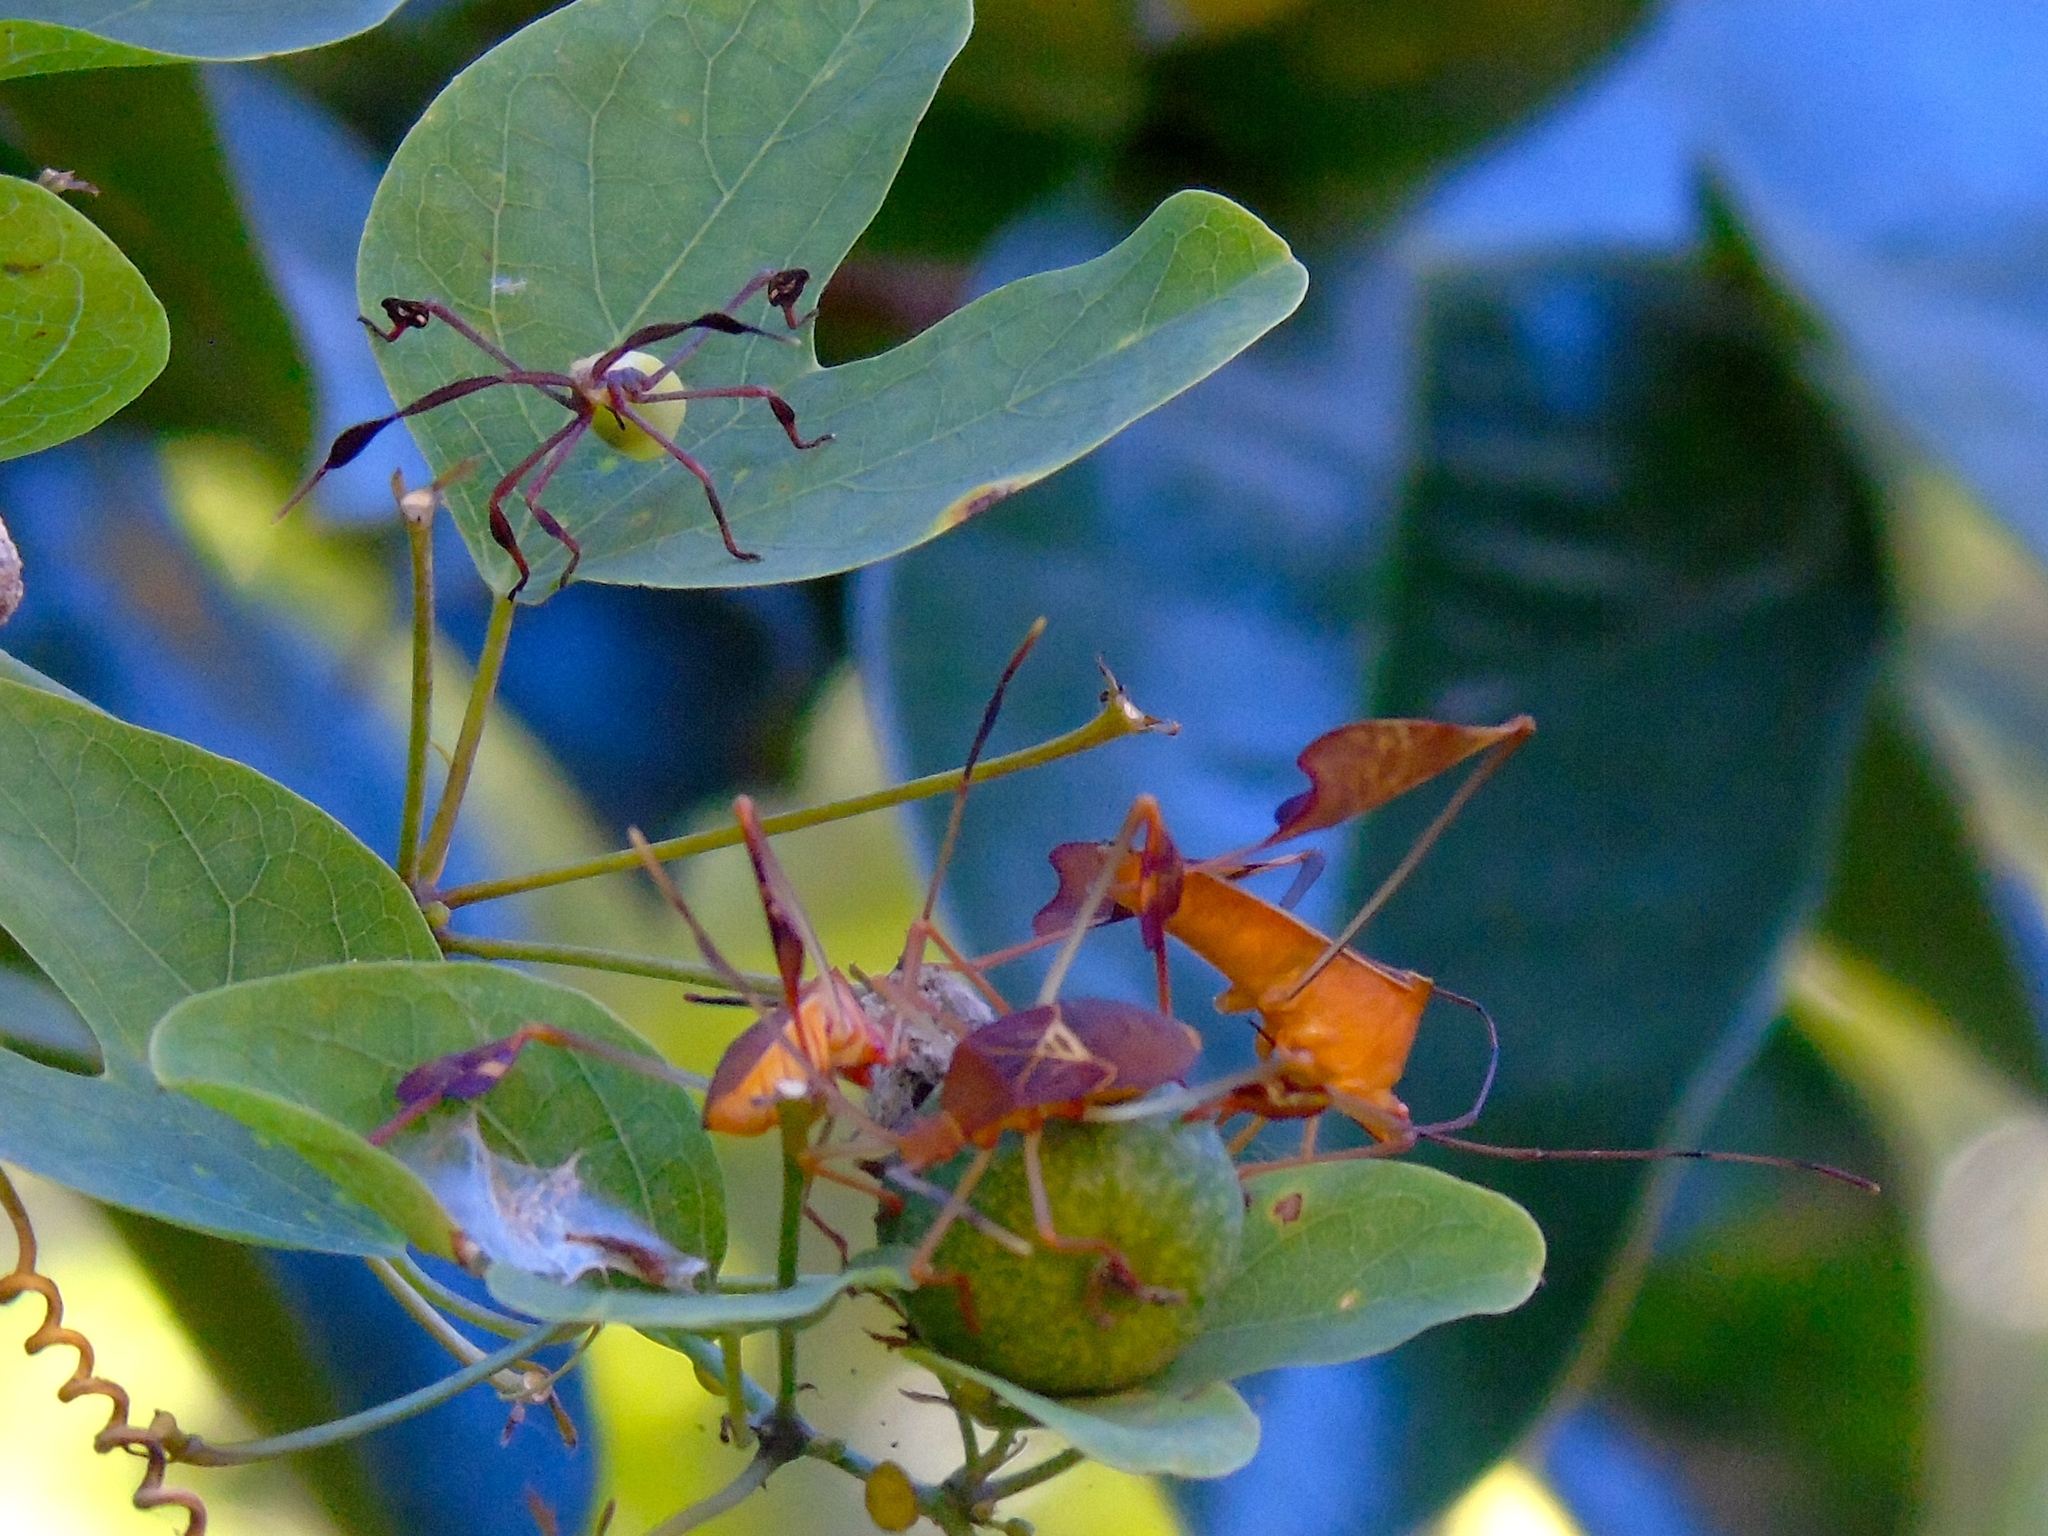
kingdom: Animalia
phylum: Arthropoda
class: Insecta
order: Hemiptera
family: Coreidae
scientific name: Coreidae
